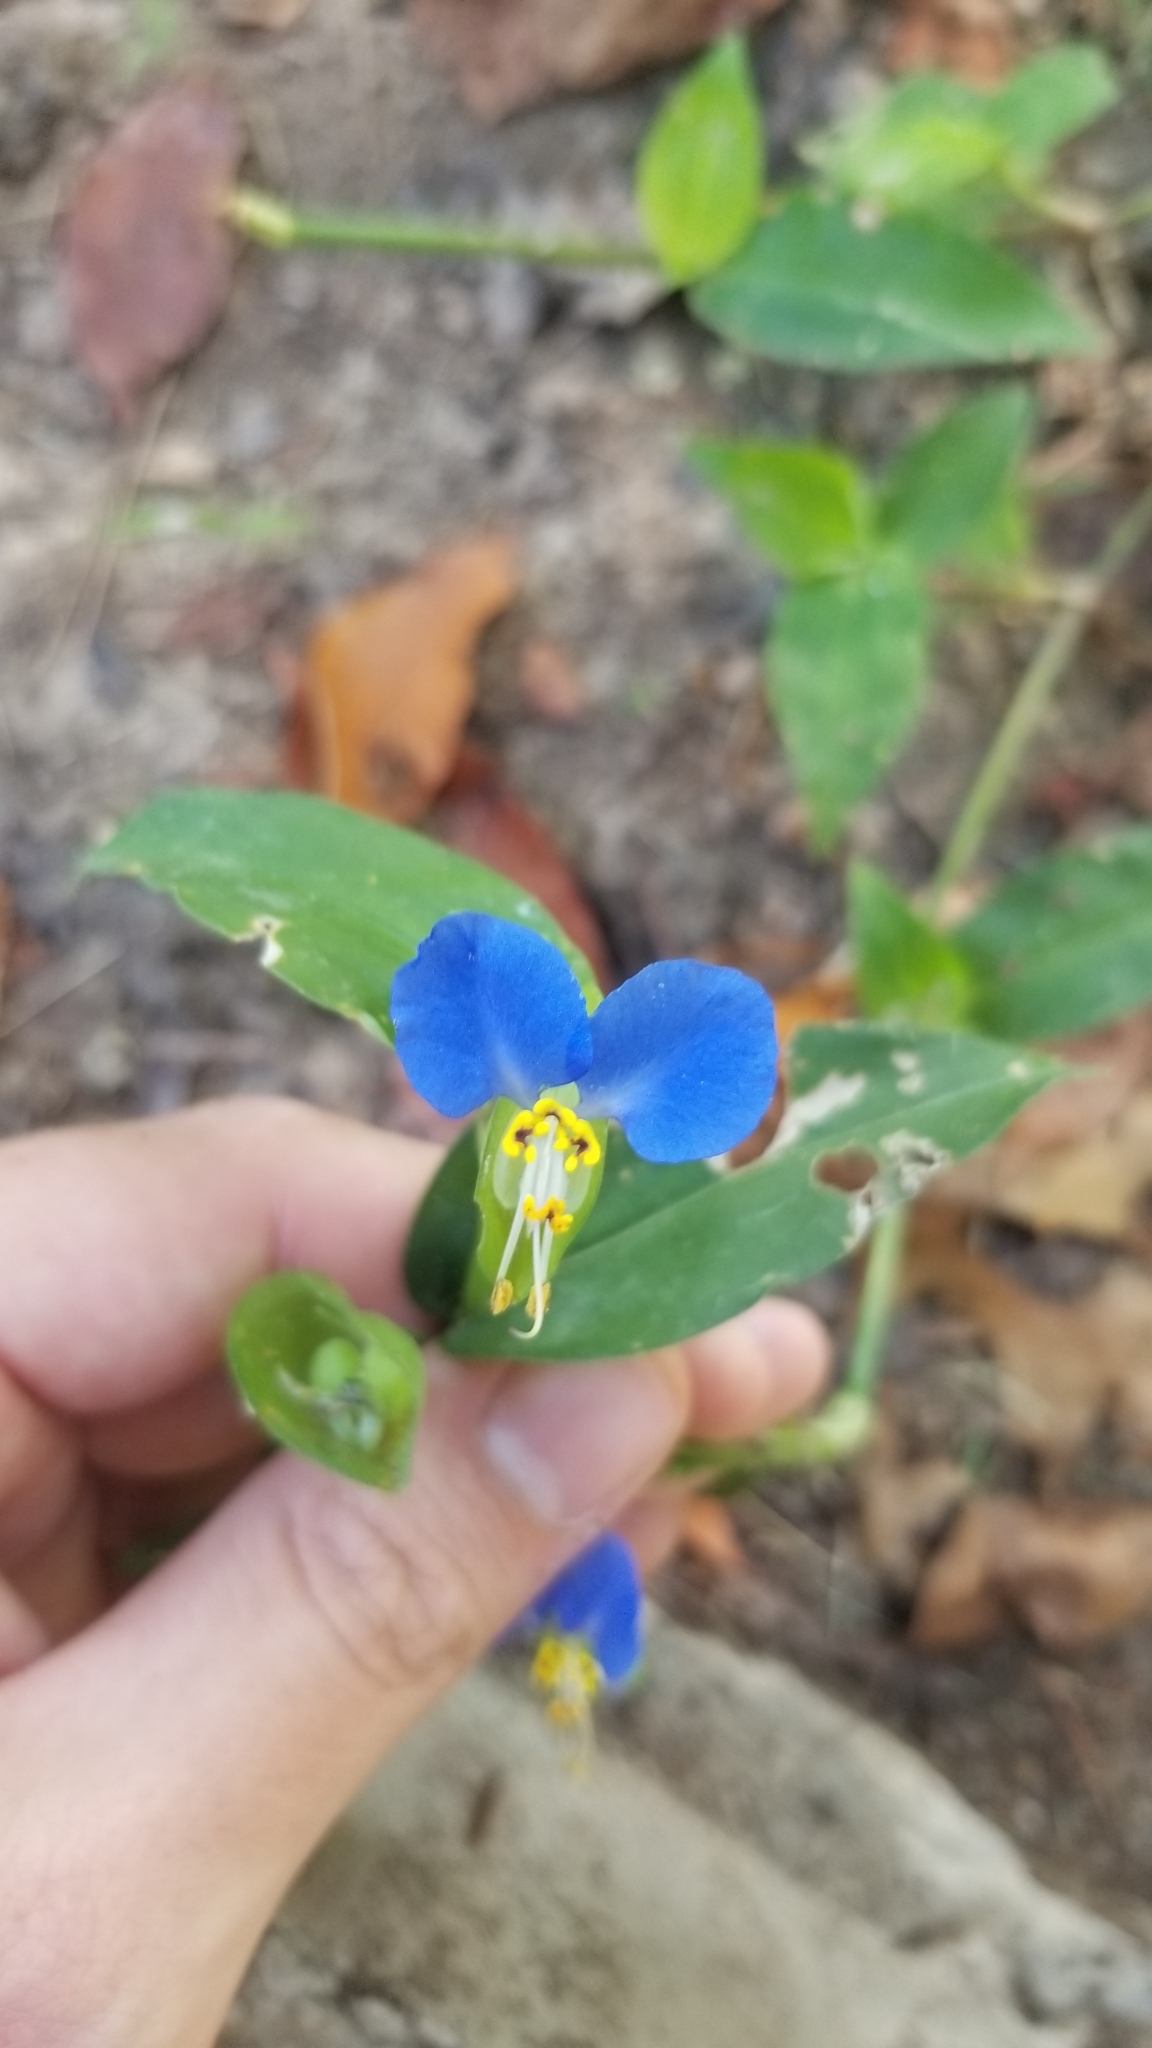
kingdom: Plantae
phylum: Tracheophyta
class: Liliopsida
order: Commelinales
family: Commelinaceae
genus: Commelina
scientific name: Commelina communis
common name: Asiatic dayflower
